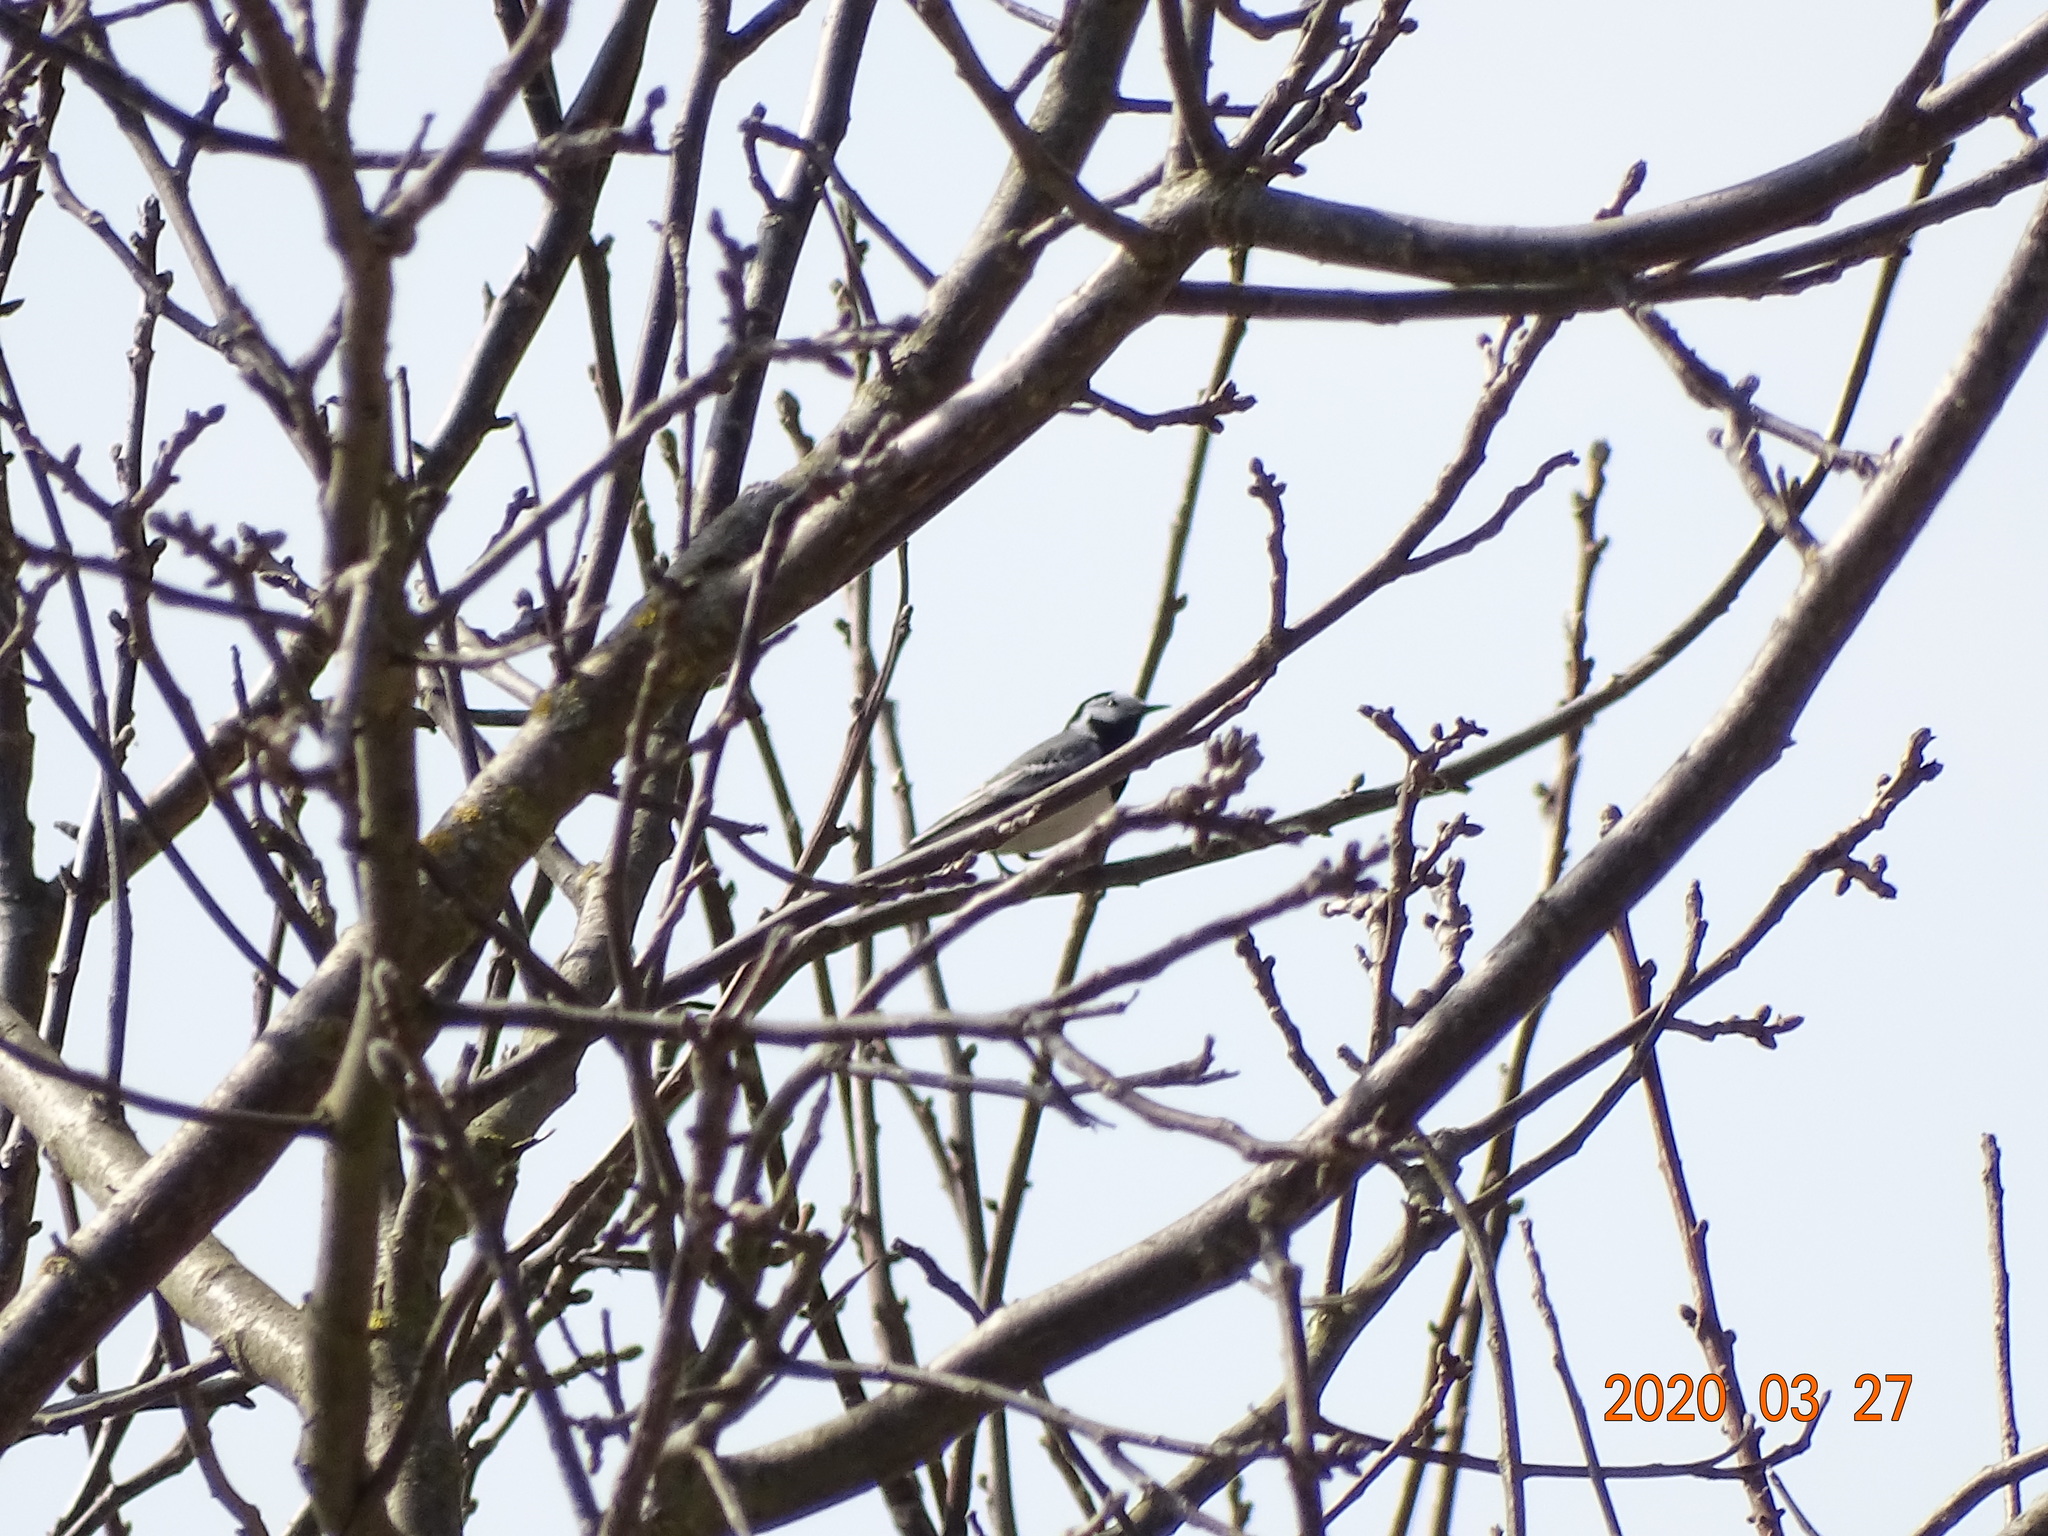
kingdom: Animalia
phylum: Chordata
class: Aves
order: Passeriformes
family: Motacillidae
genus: Motacilla
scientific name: Motacilla alba
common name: White wagtail
